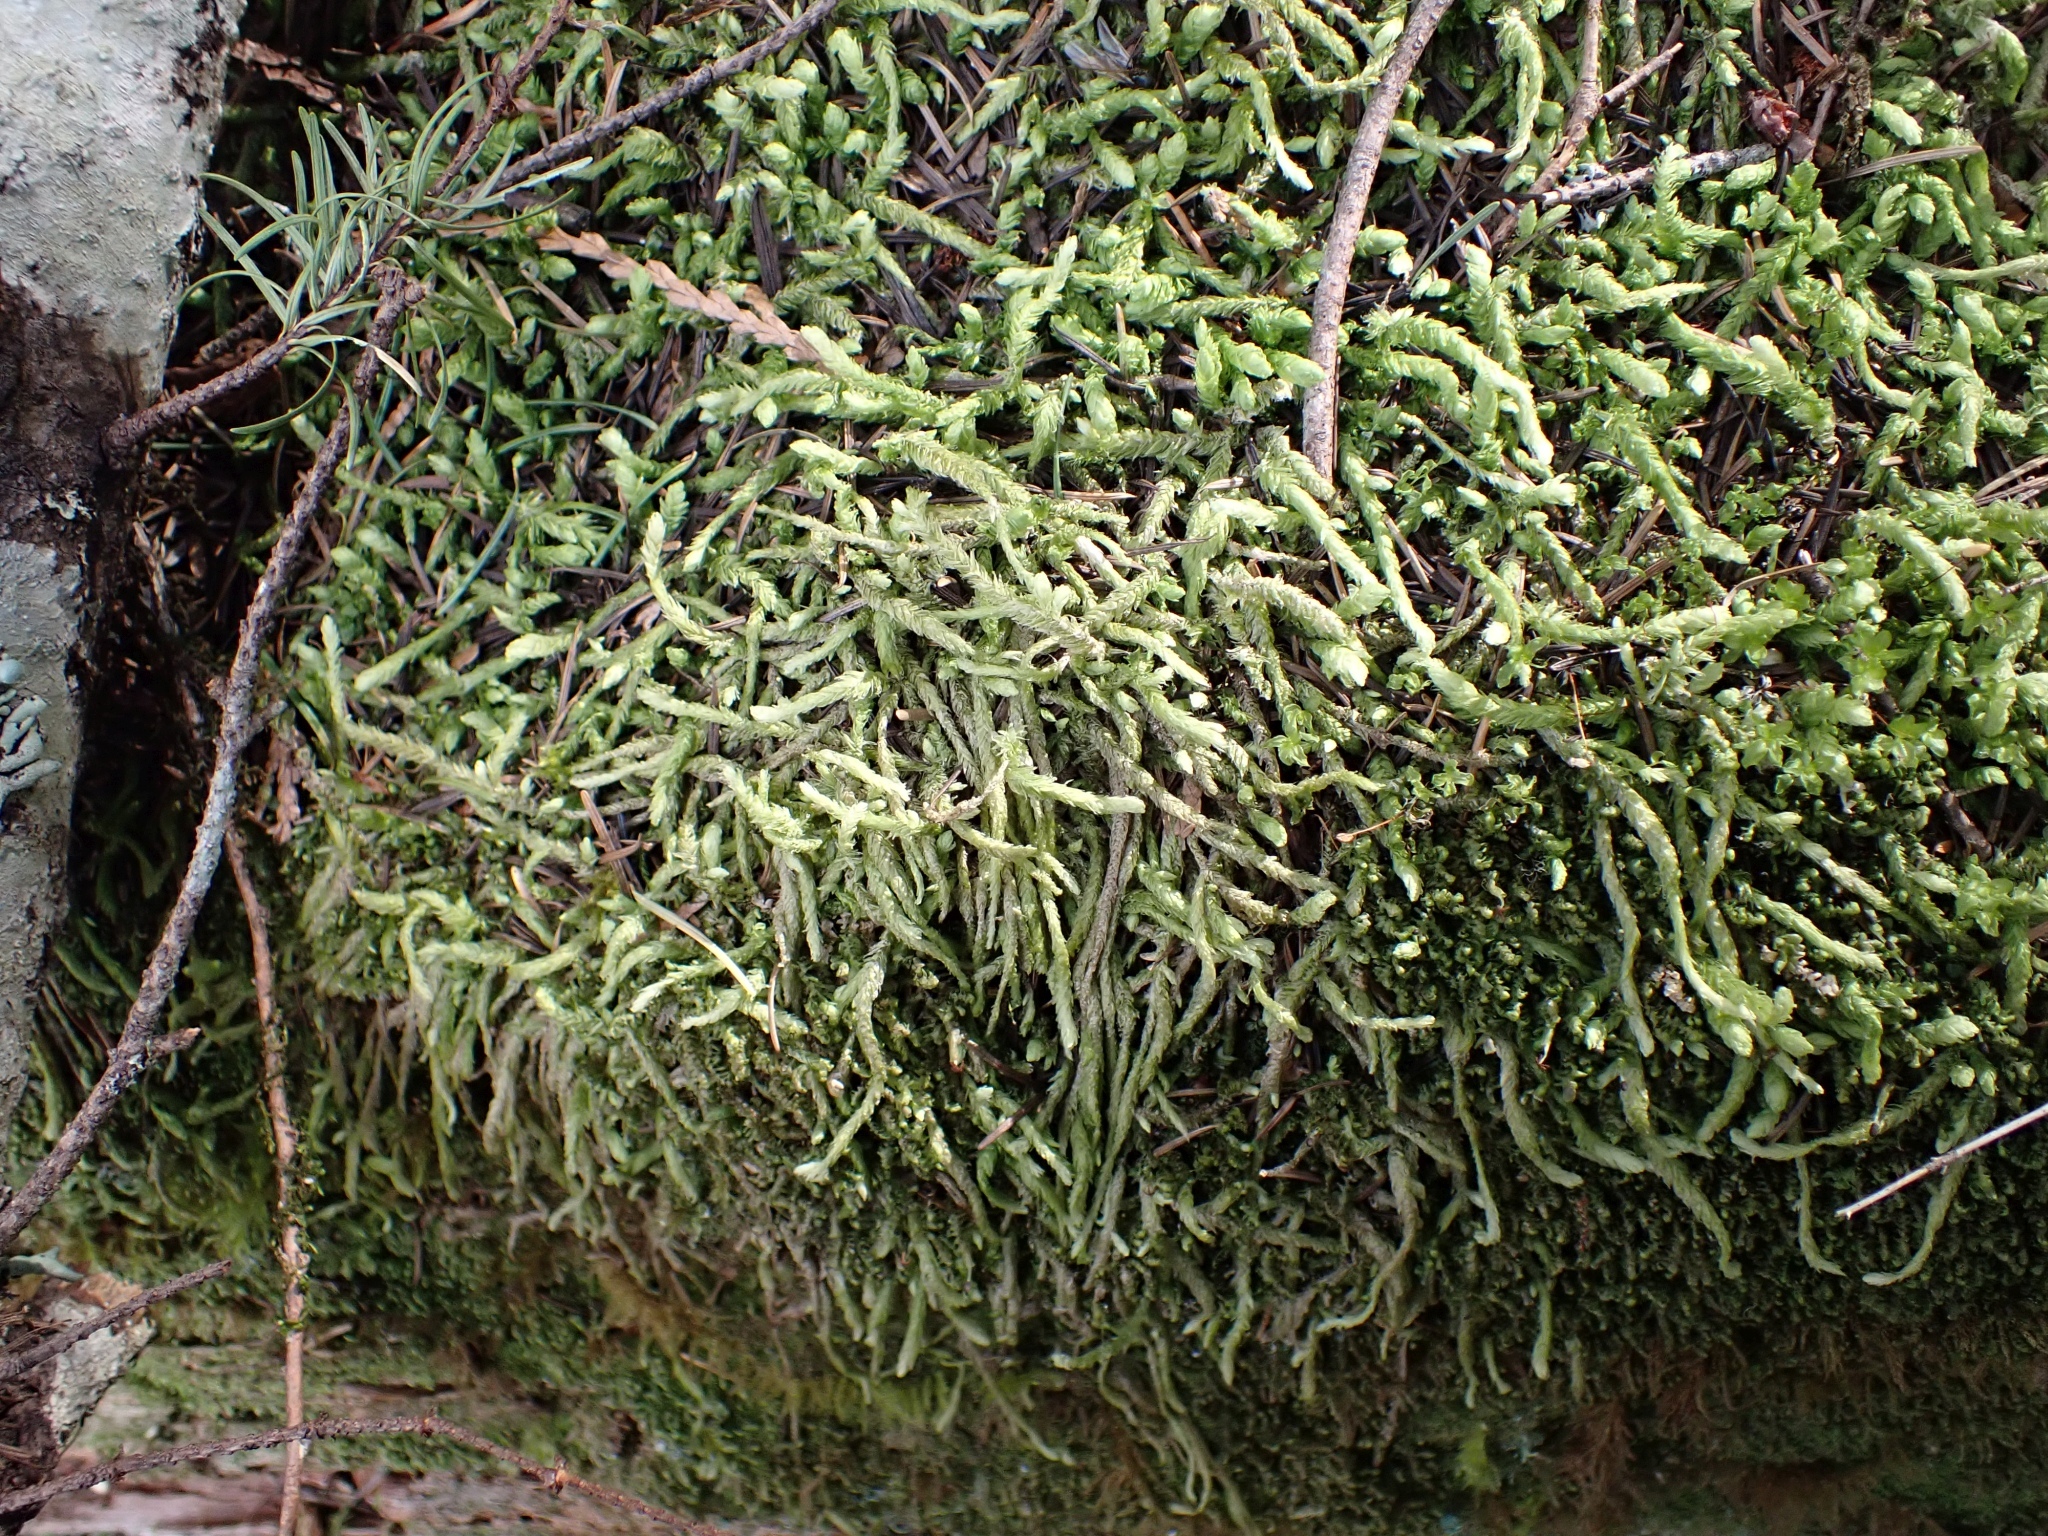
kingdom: Plantae
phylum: Bryophyta
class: Bryopsida
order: Hypnales
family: Plagiotheciaceae
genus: Plagiothecium
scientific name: Plagiothecium undulatum
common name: Waved silk-moss
